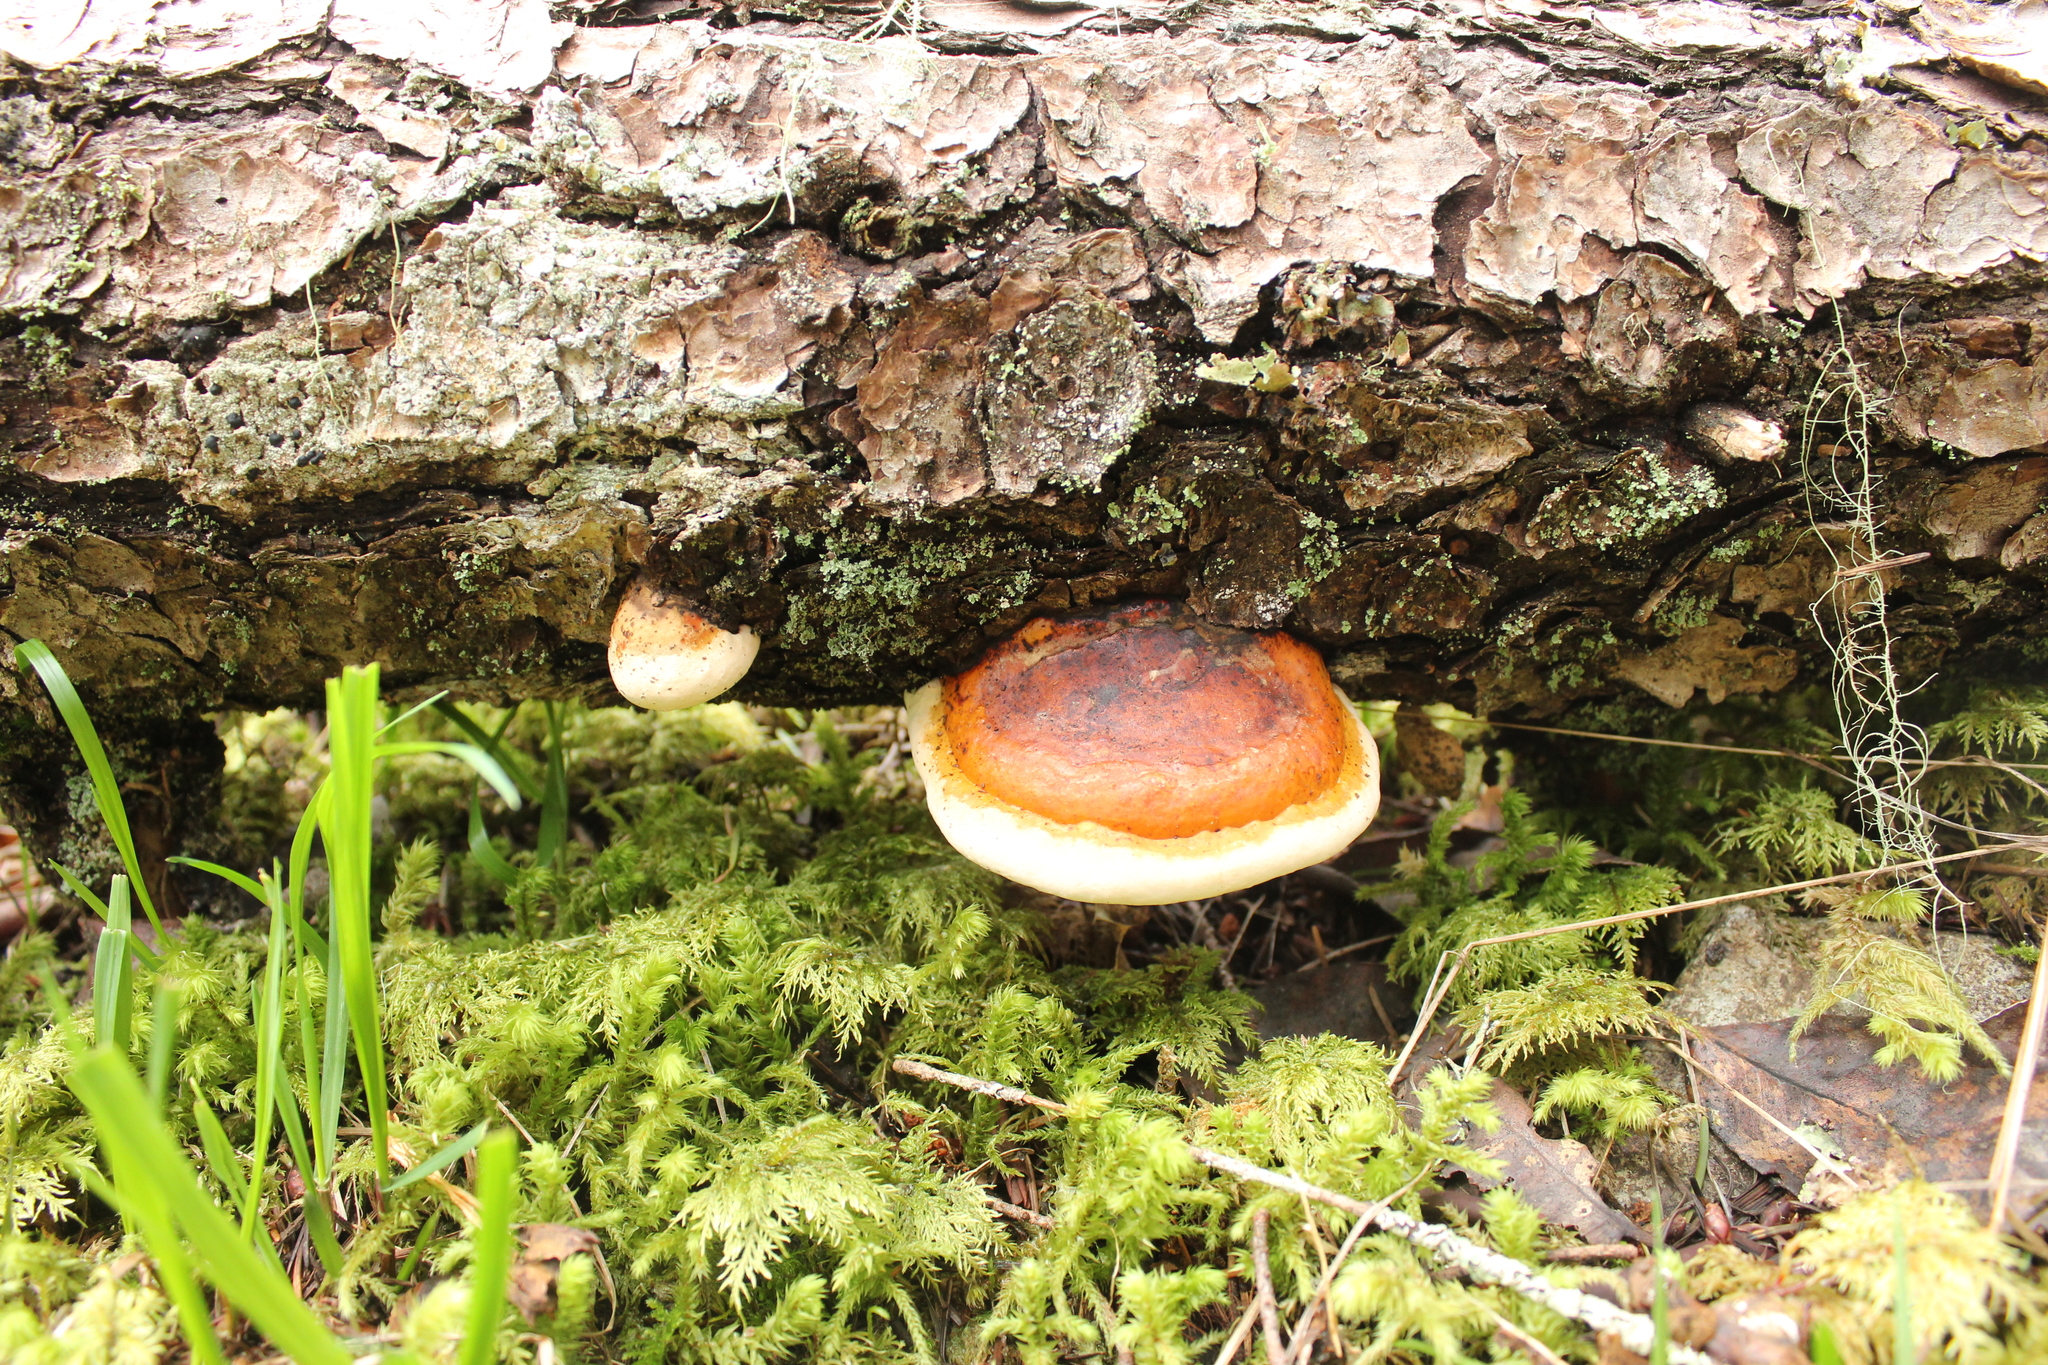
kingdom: Fungi
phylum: Basidiomycota
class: Agaricomycetes
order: Polyporales
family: Fomitopsidaceae
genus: Fomitopsis
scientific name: Fomitopsis mounceae
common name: Northern red belt
